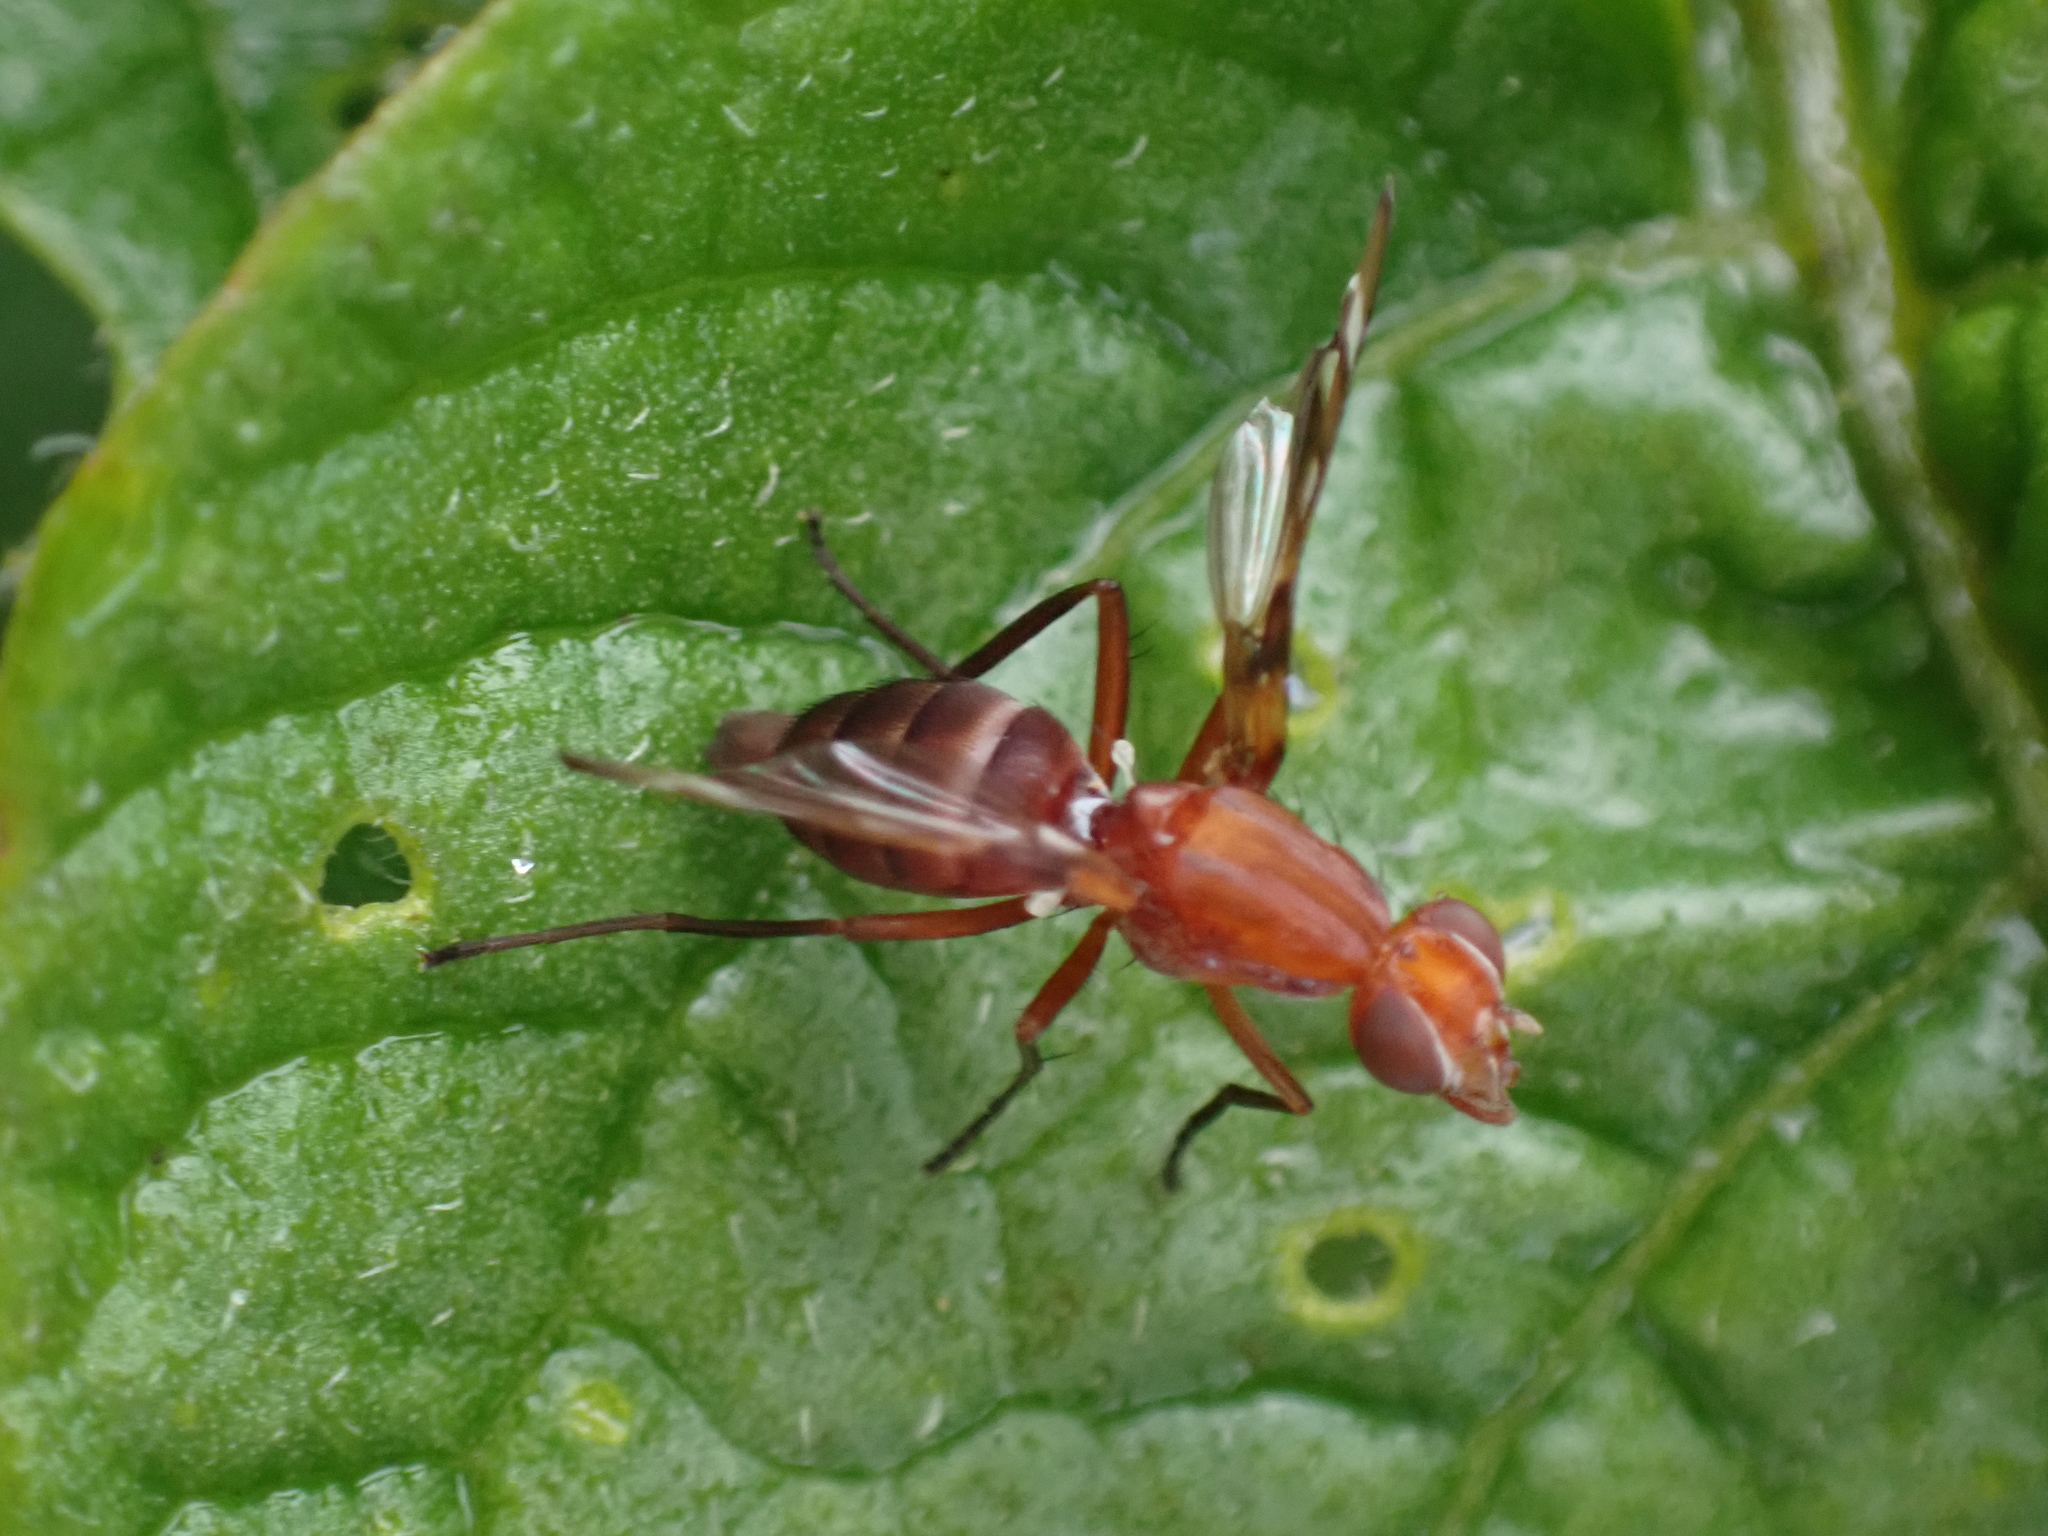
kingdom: Animalia
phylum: Arthropoda
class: Insecta
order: Diptera
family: Ulidiidae
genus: Tritoxa
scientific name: Tritoxa incurva
